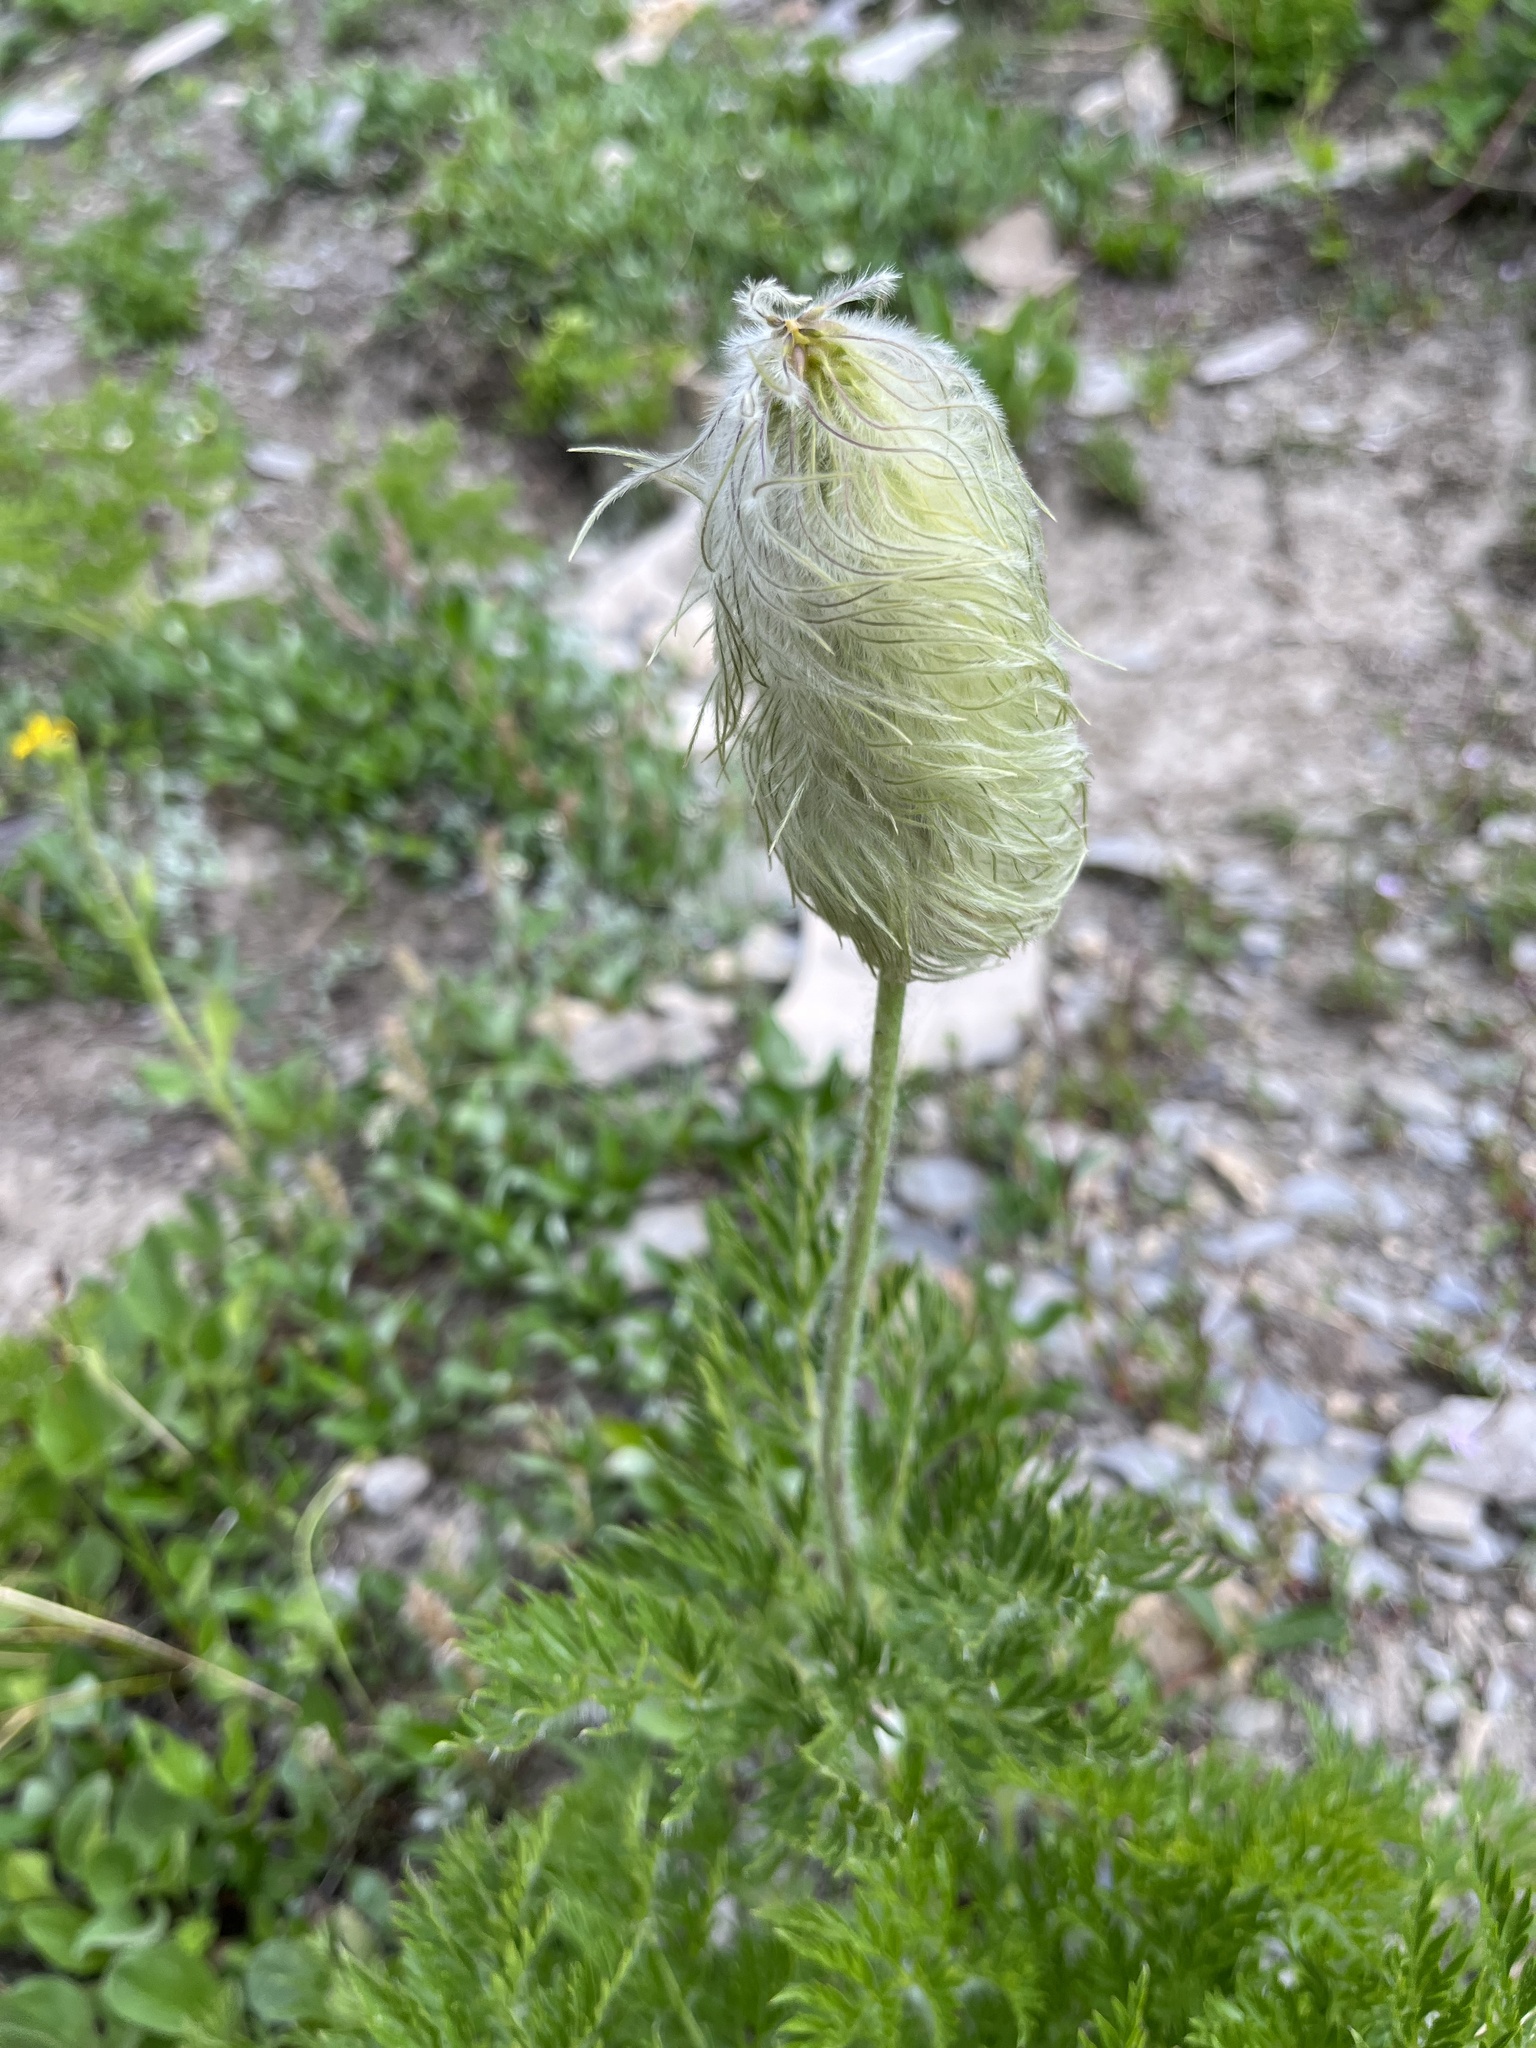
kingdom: Plantae
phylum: Tracheophyta
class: Magnoliopsida
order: Ranunculales
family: Ranunculaceae
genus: Pulsatilla
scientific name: Pulsatilla occidentalis
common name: Mountain pasqueflower
